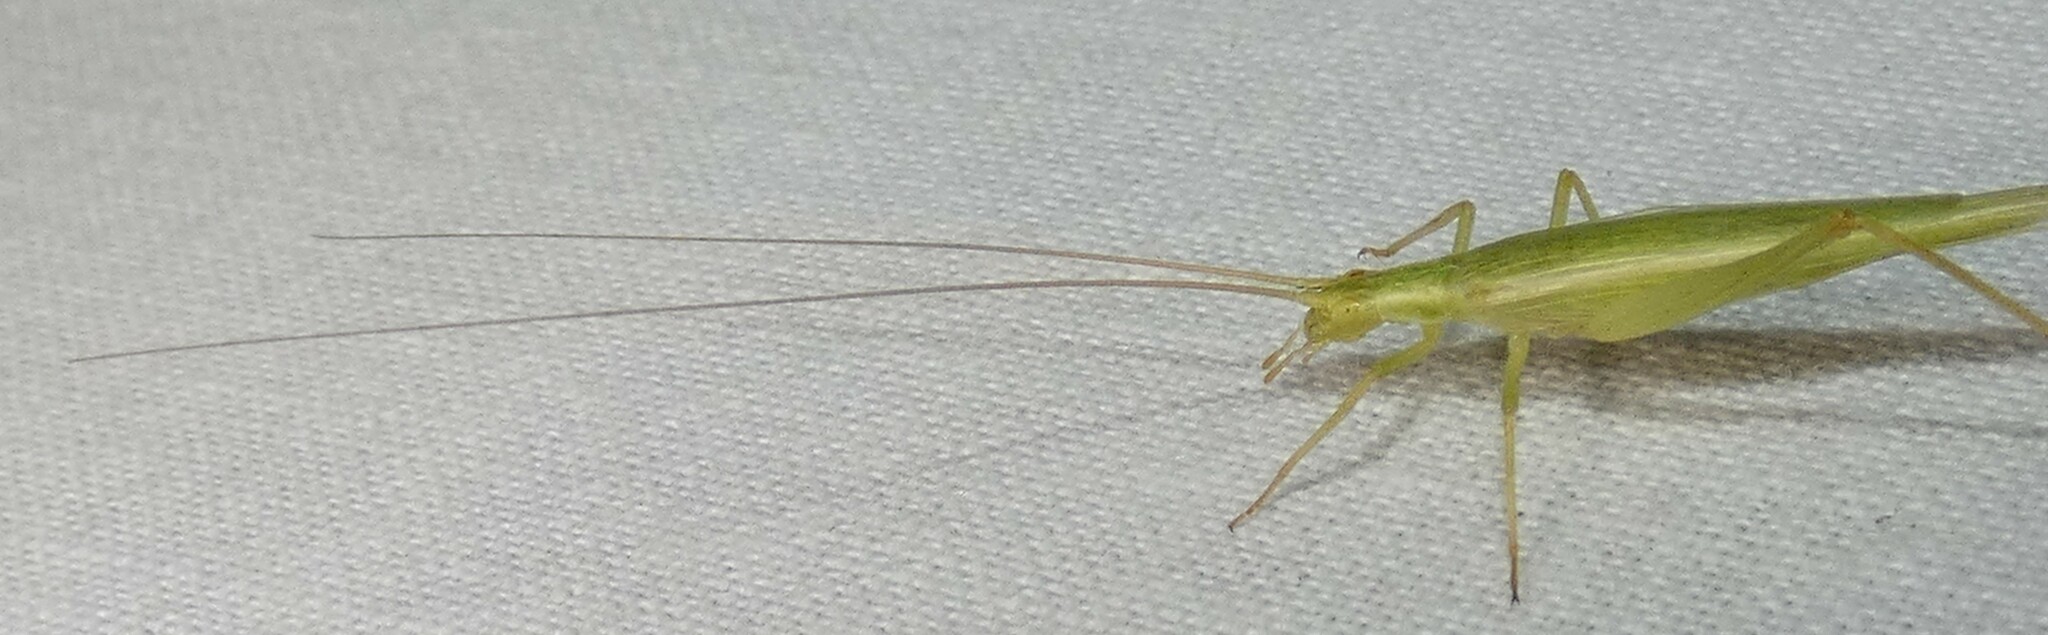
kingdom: Animalia
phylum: Arthropoda
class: Insecta
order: Orthoptera
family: Gryllidae
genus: Oecanthus
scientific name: Oecanthus quadripunctatus
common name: Four-spotted tree cricket
